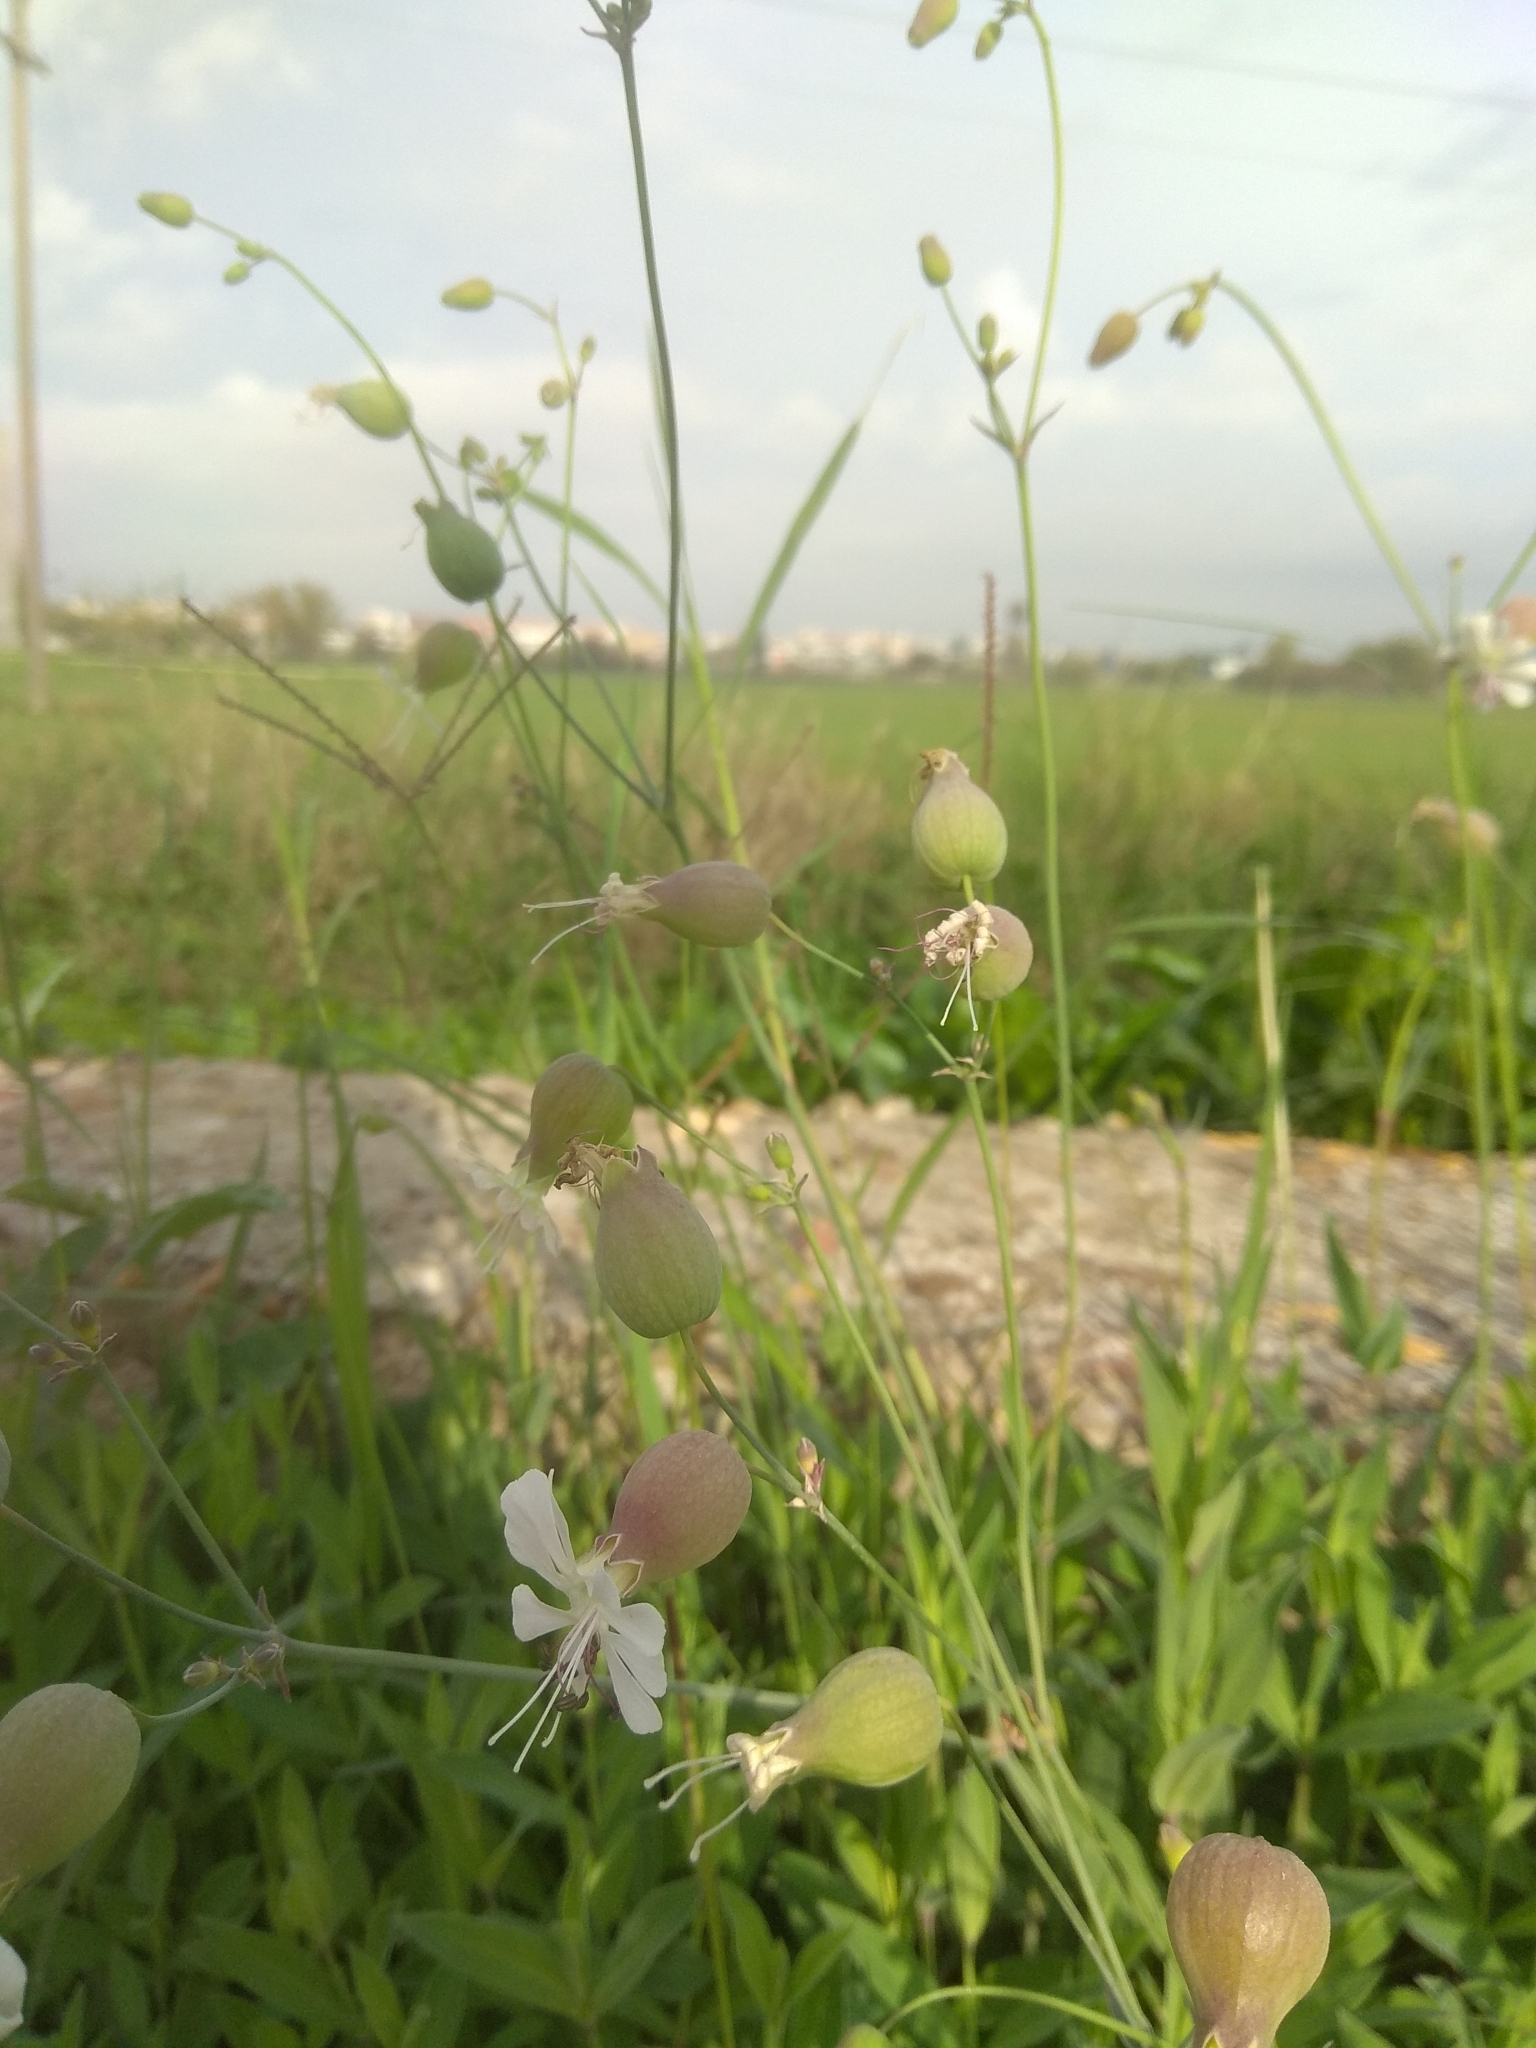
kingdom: Plantae
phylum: Tracheophyta
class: Magnoliopsida
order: Caryophyllales
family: Caryophyllaceae
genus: Silene
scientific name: Silene vulgaris
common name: Bladder campion
